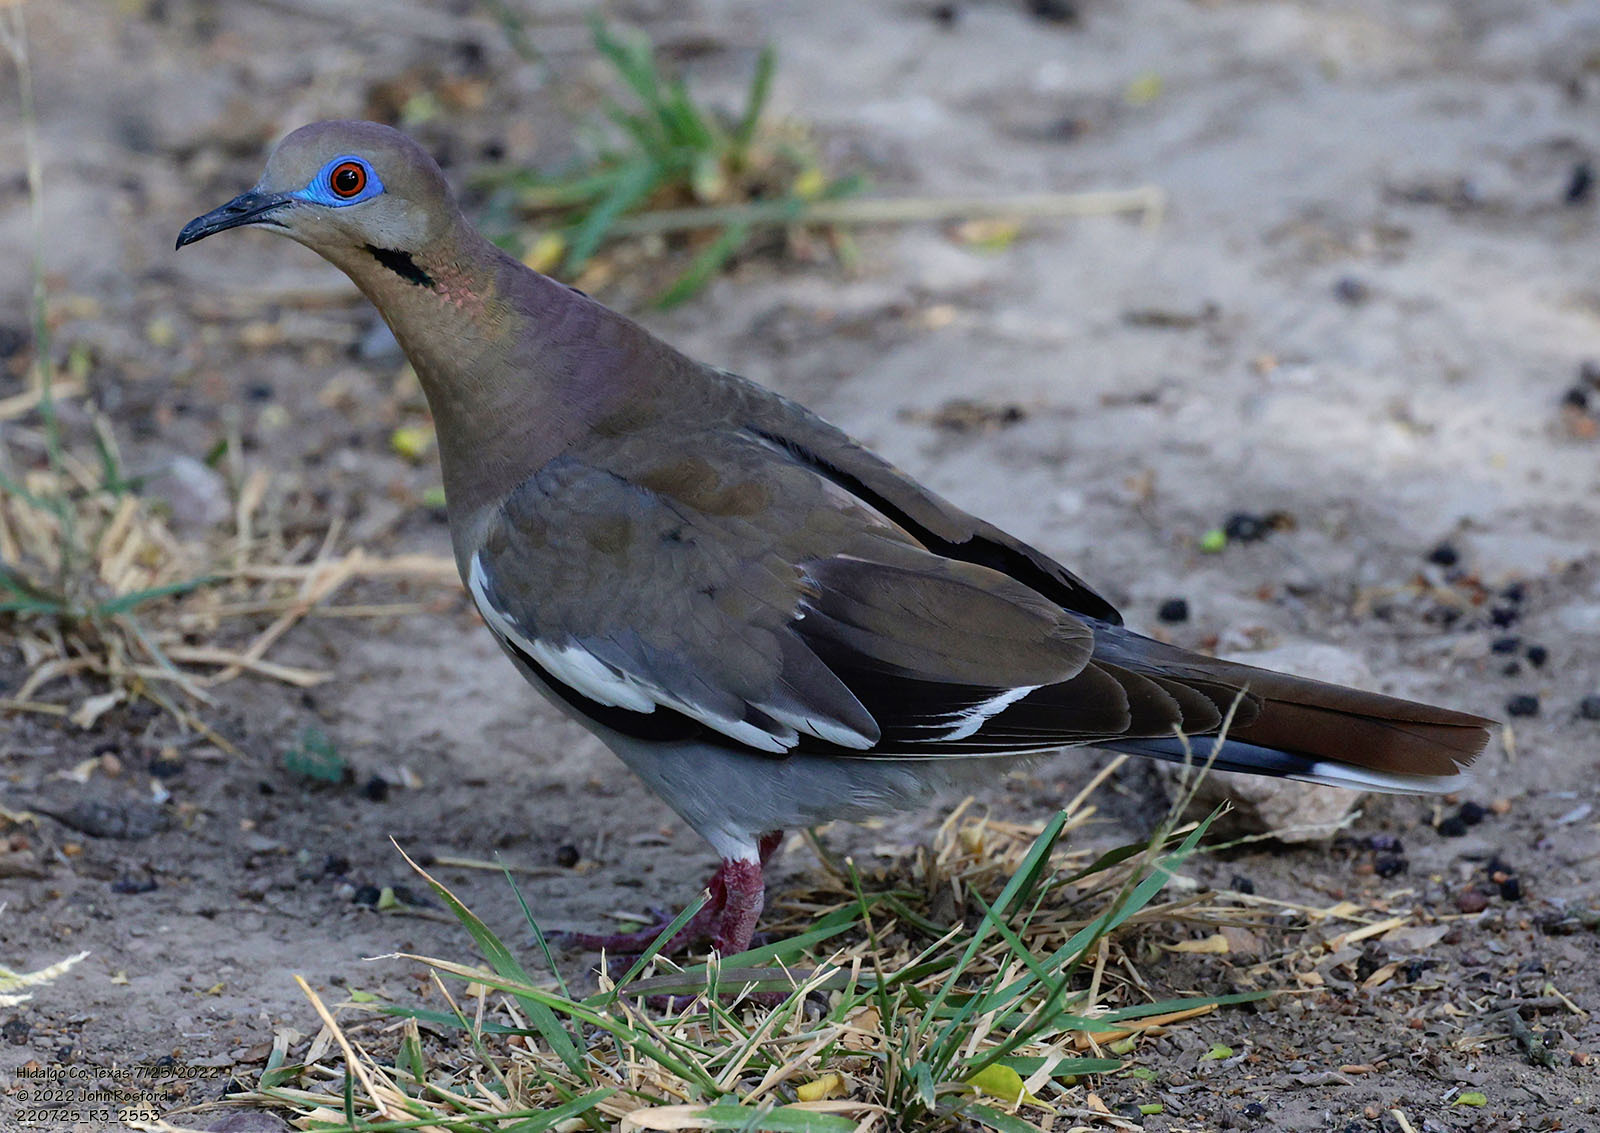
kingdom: Animalia
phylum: Chordata
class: Aves
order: Columbiformes
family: Columbidae
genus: Zenaida
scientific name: Zenaida asiatica
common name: White-winged dove
